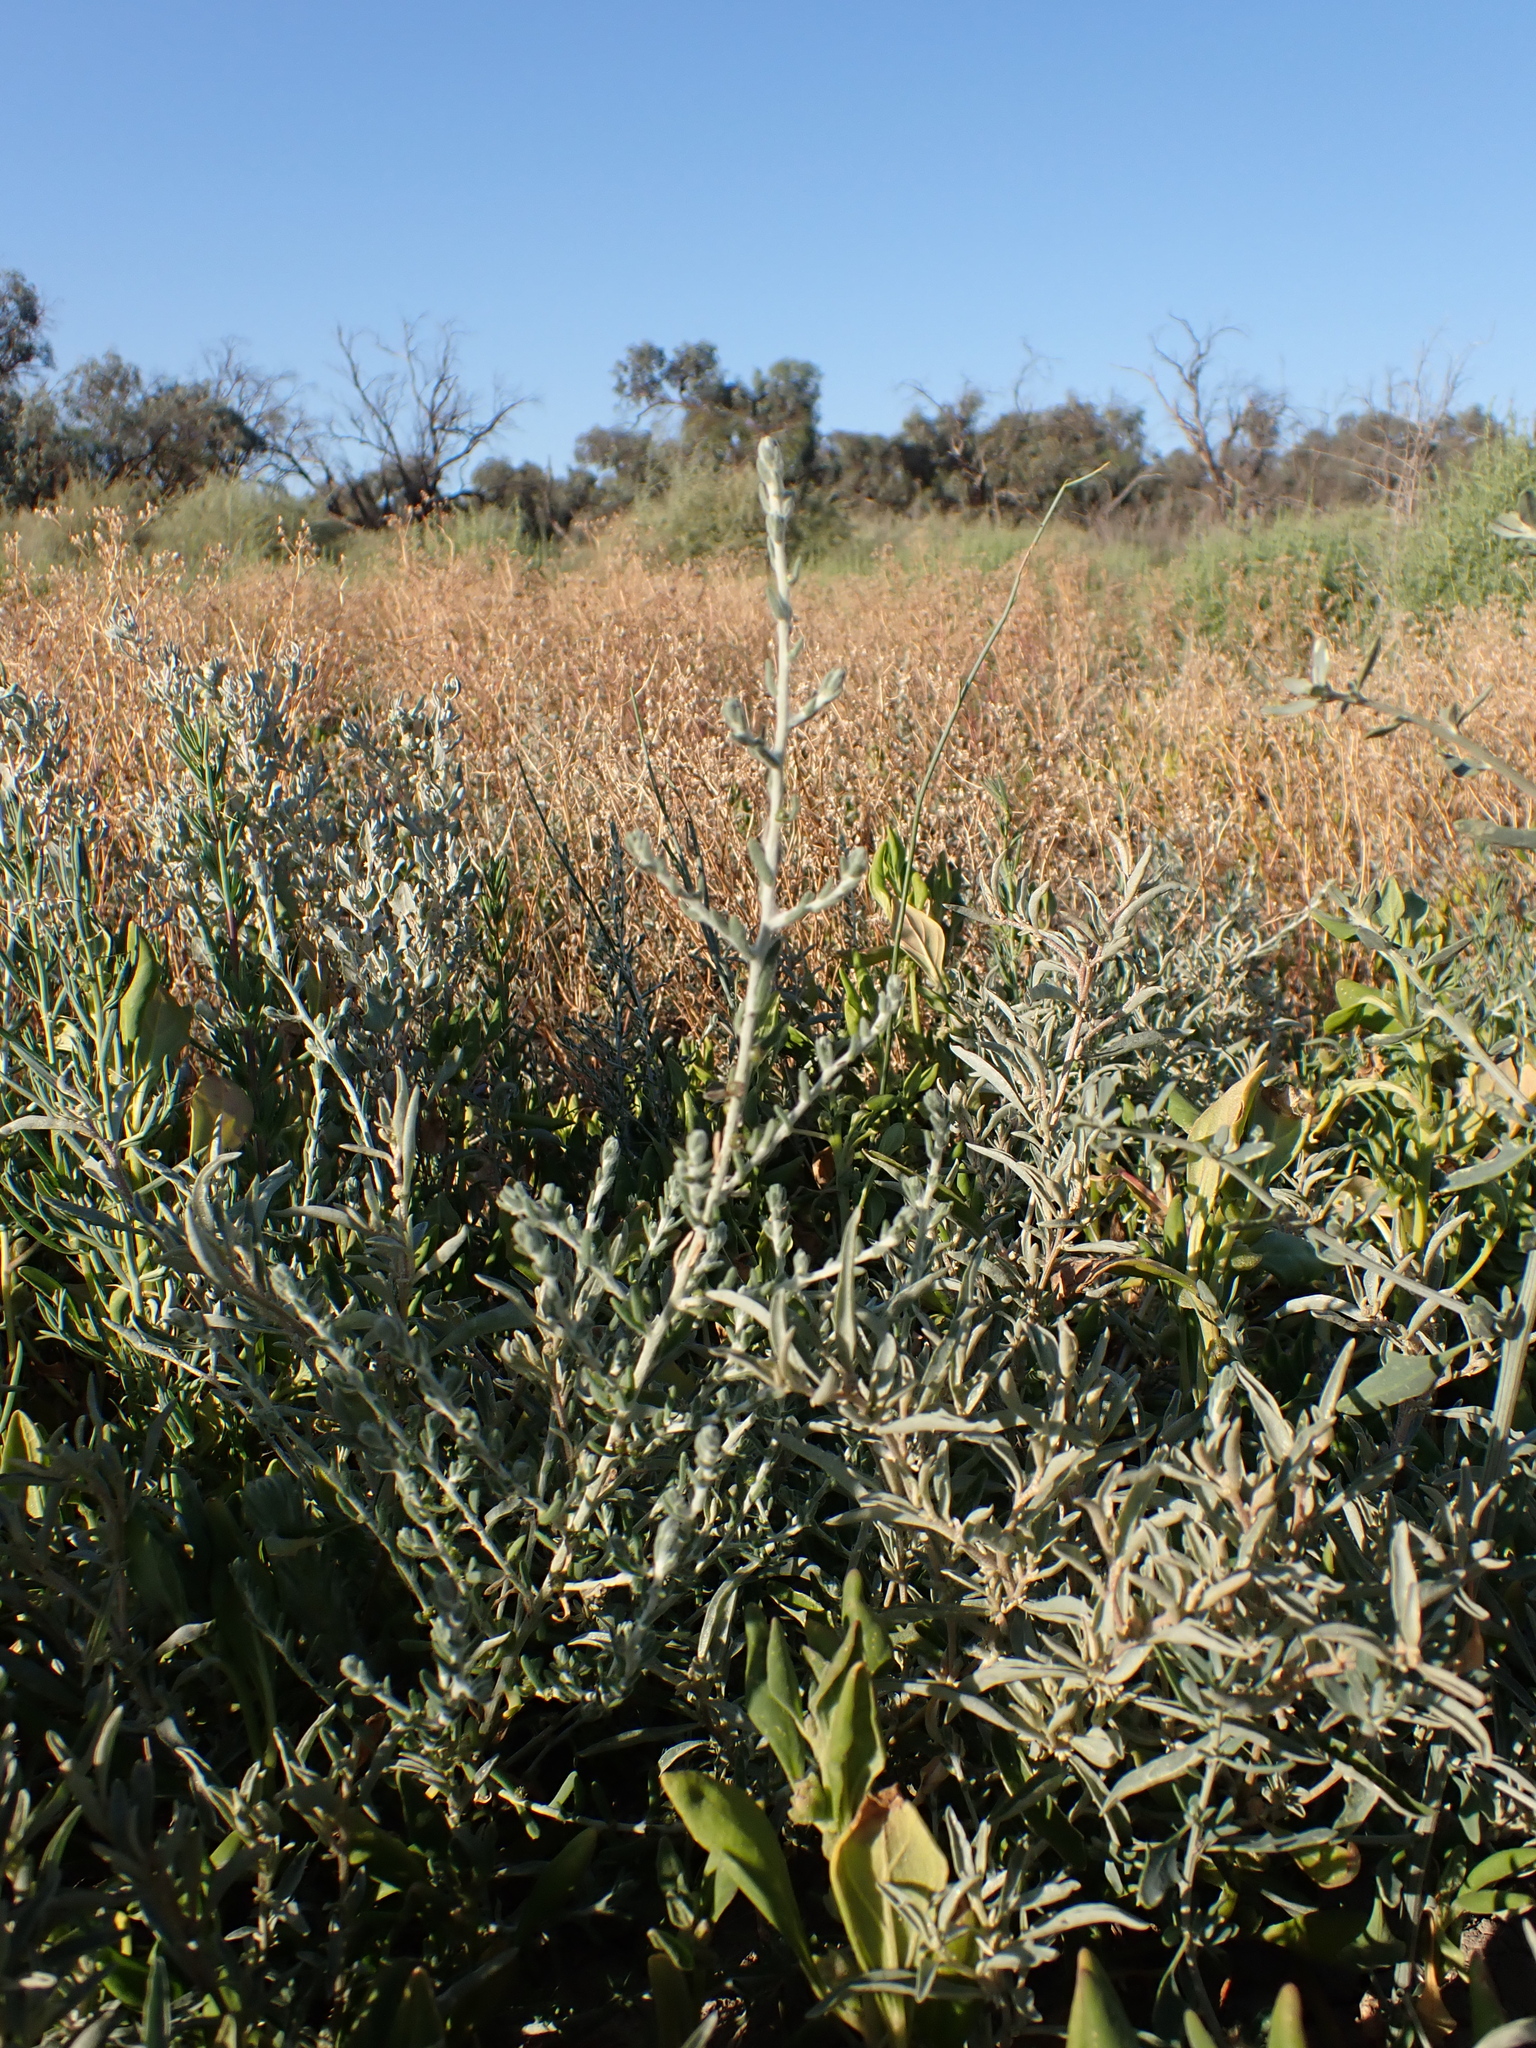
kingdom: Plantae
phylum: Tracheophyta
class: Magnoliopsida
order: Caryophyllales
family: Amaranthaceae
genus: Sclerolaena
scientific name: Sclerolaena stelligera
